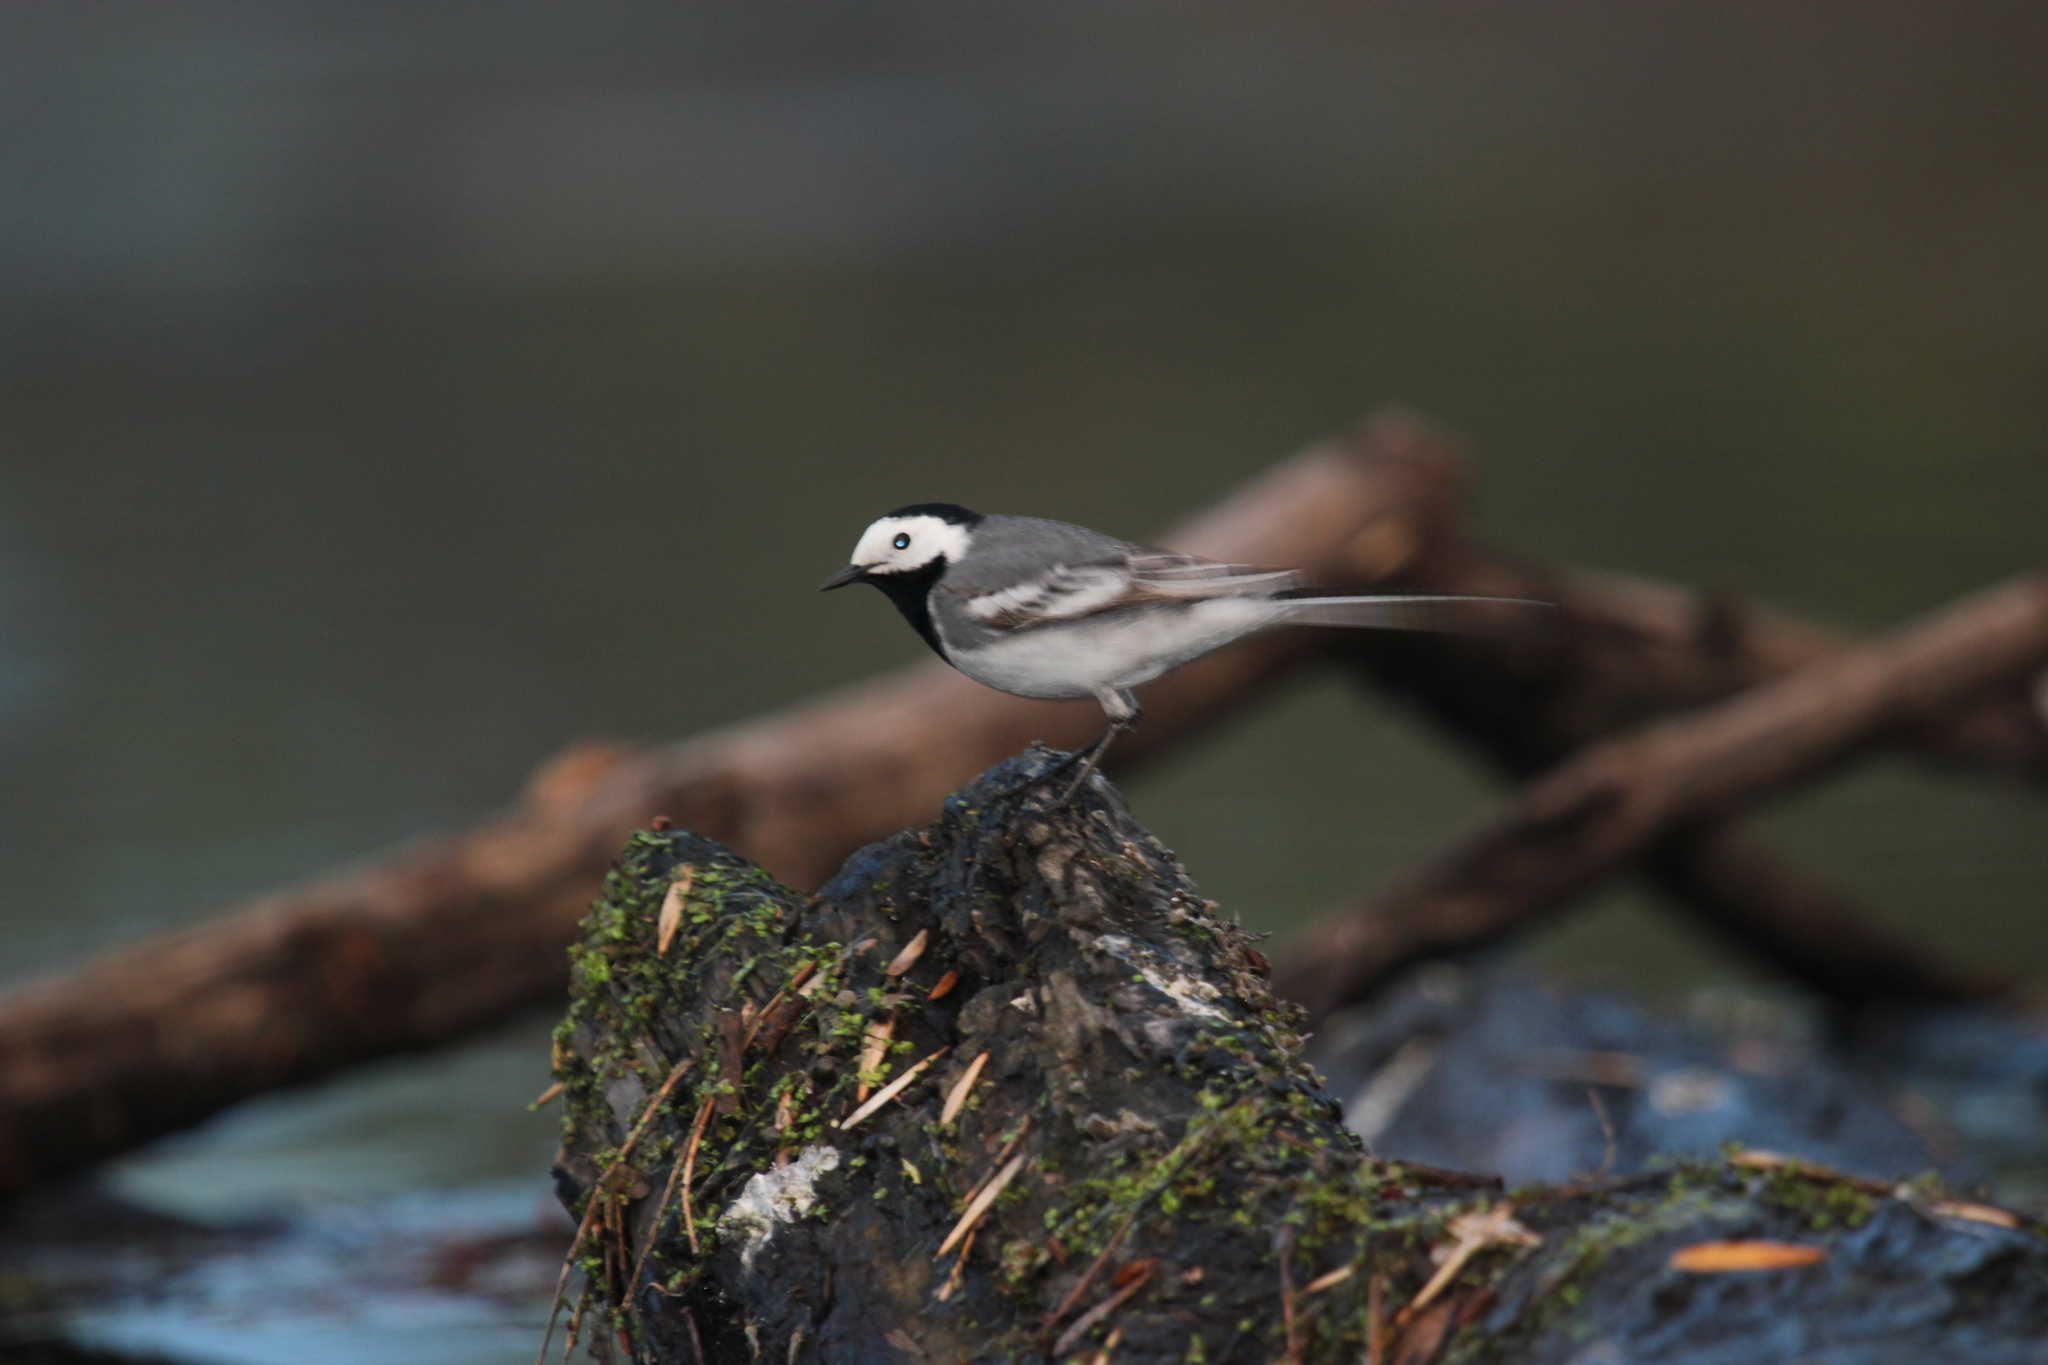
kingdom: Animalia
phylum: Chordata
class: Aves
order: Passeriformes
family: Motacillidae
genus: Motacilla
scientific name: Motacilla alba
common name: White wagtail
